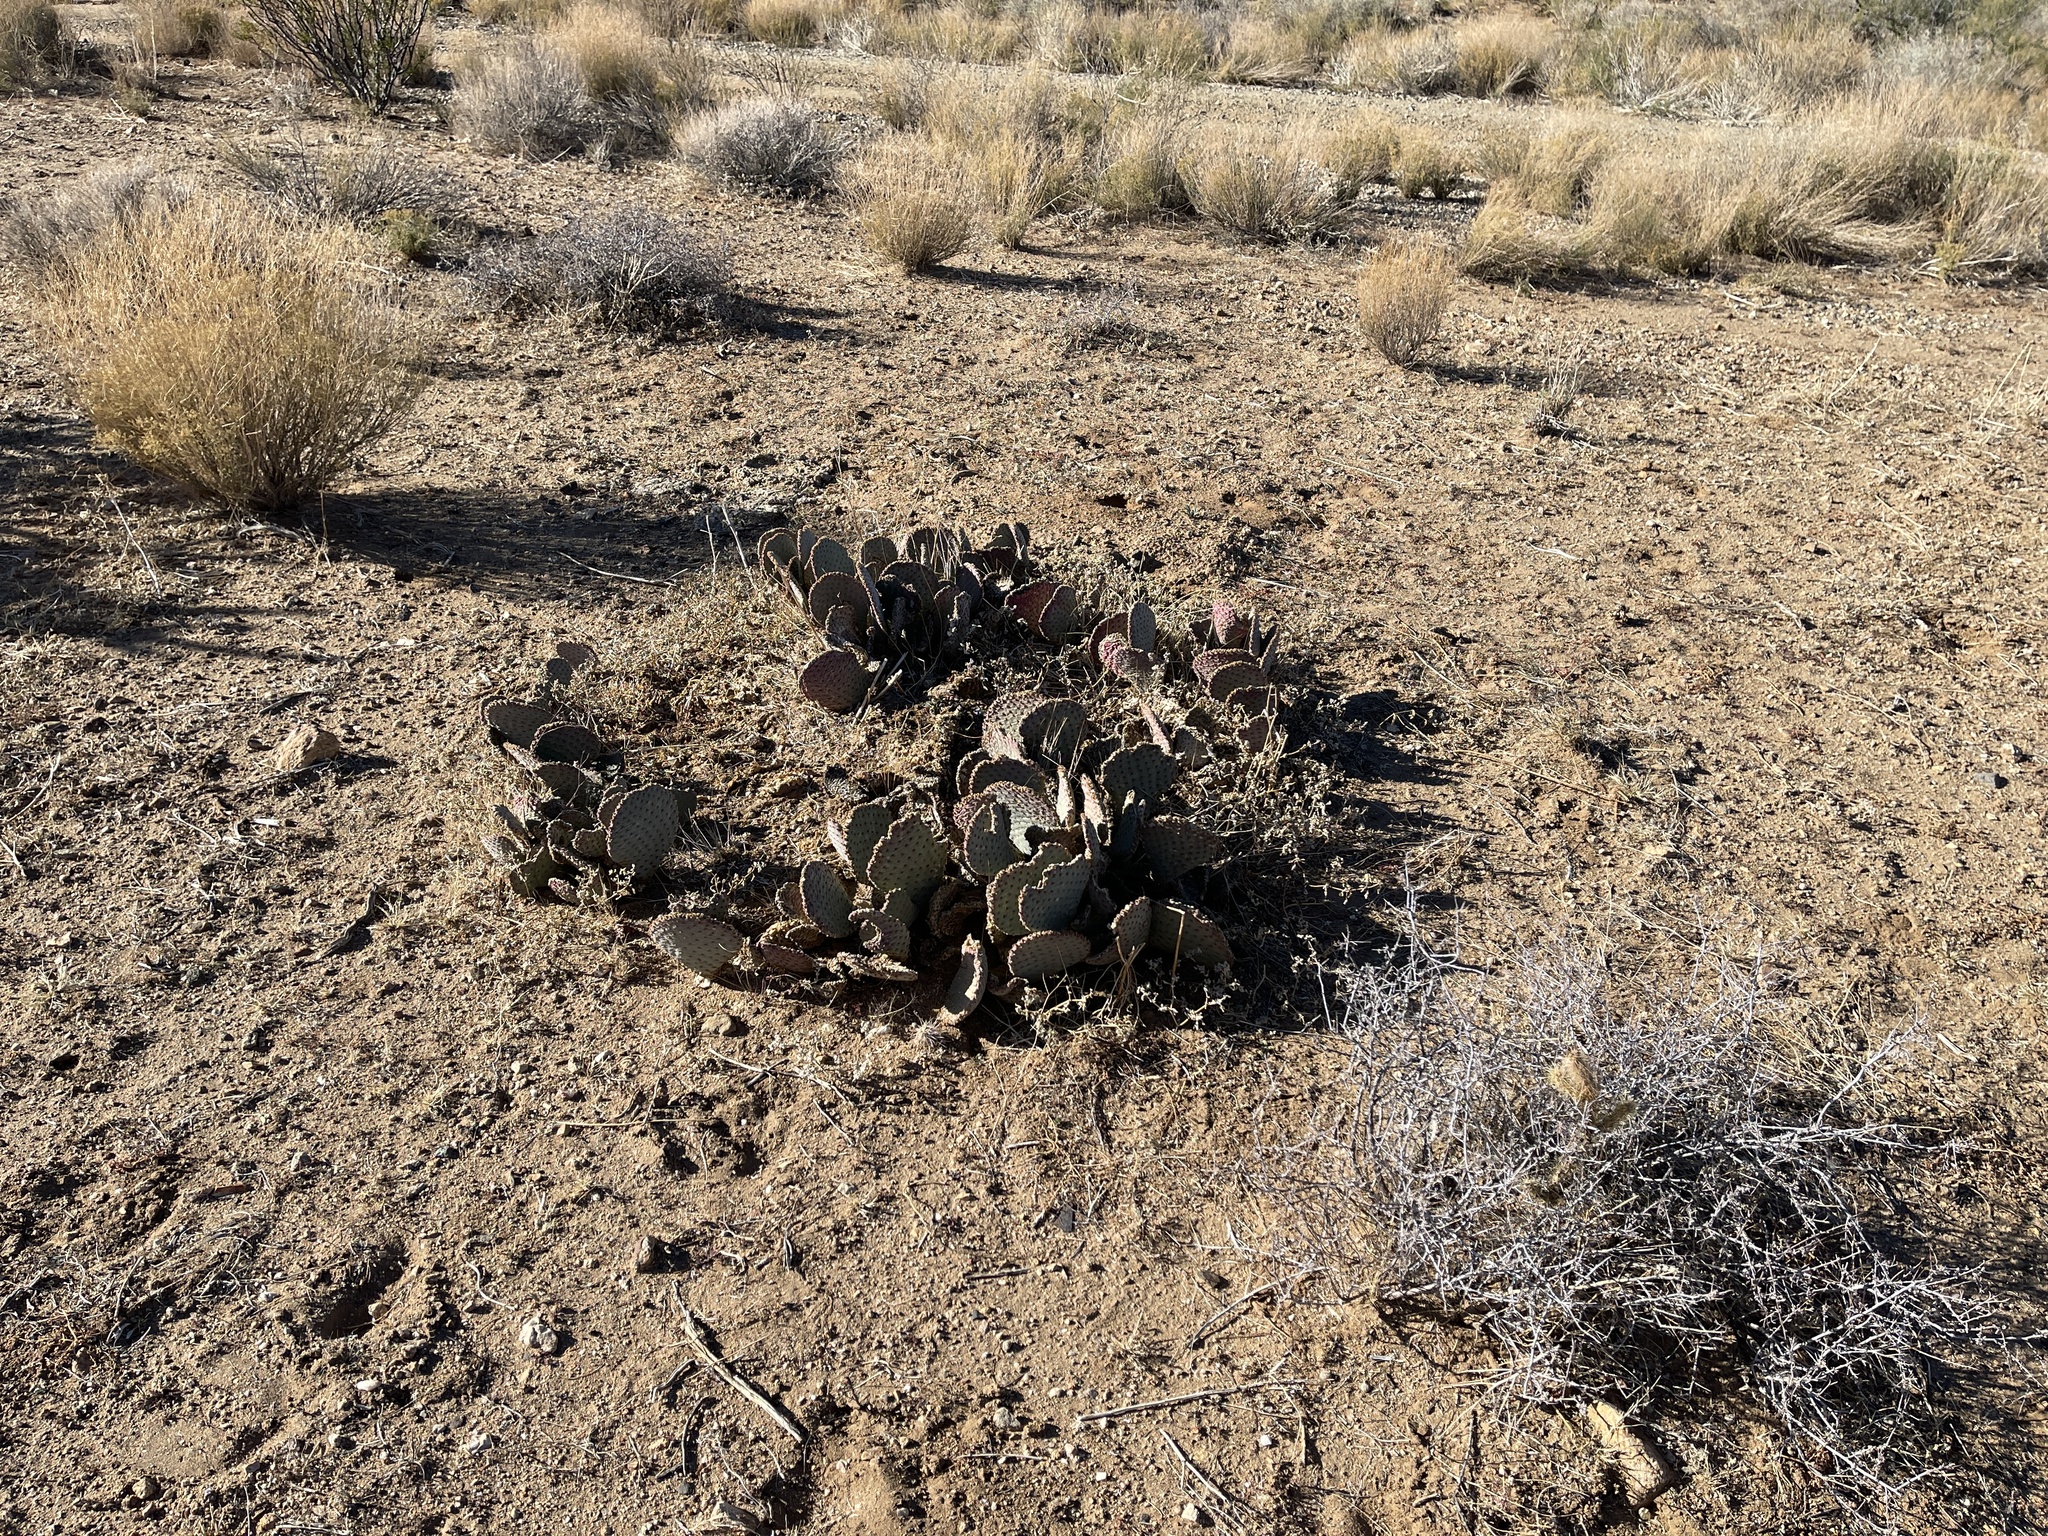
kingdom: Plantae
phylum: Tracheophyta
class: Magnoliopsida
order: Caryophyllales
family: Cactaceae
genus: Opuntia
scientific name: Opuntia basilaris
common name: Beavertail prickly-pear
